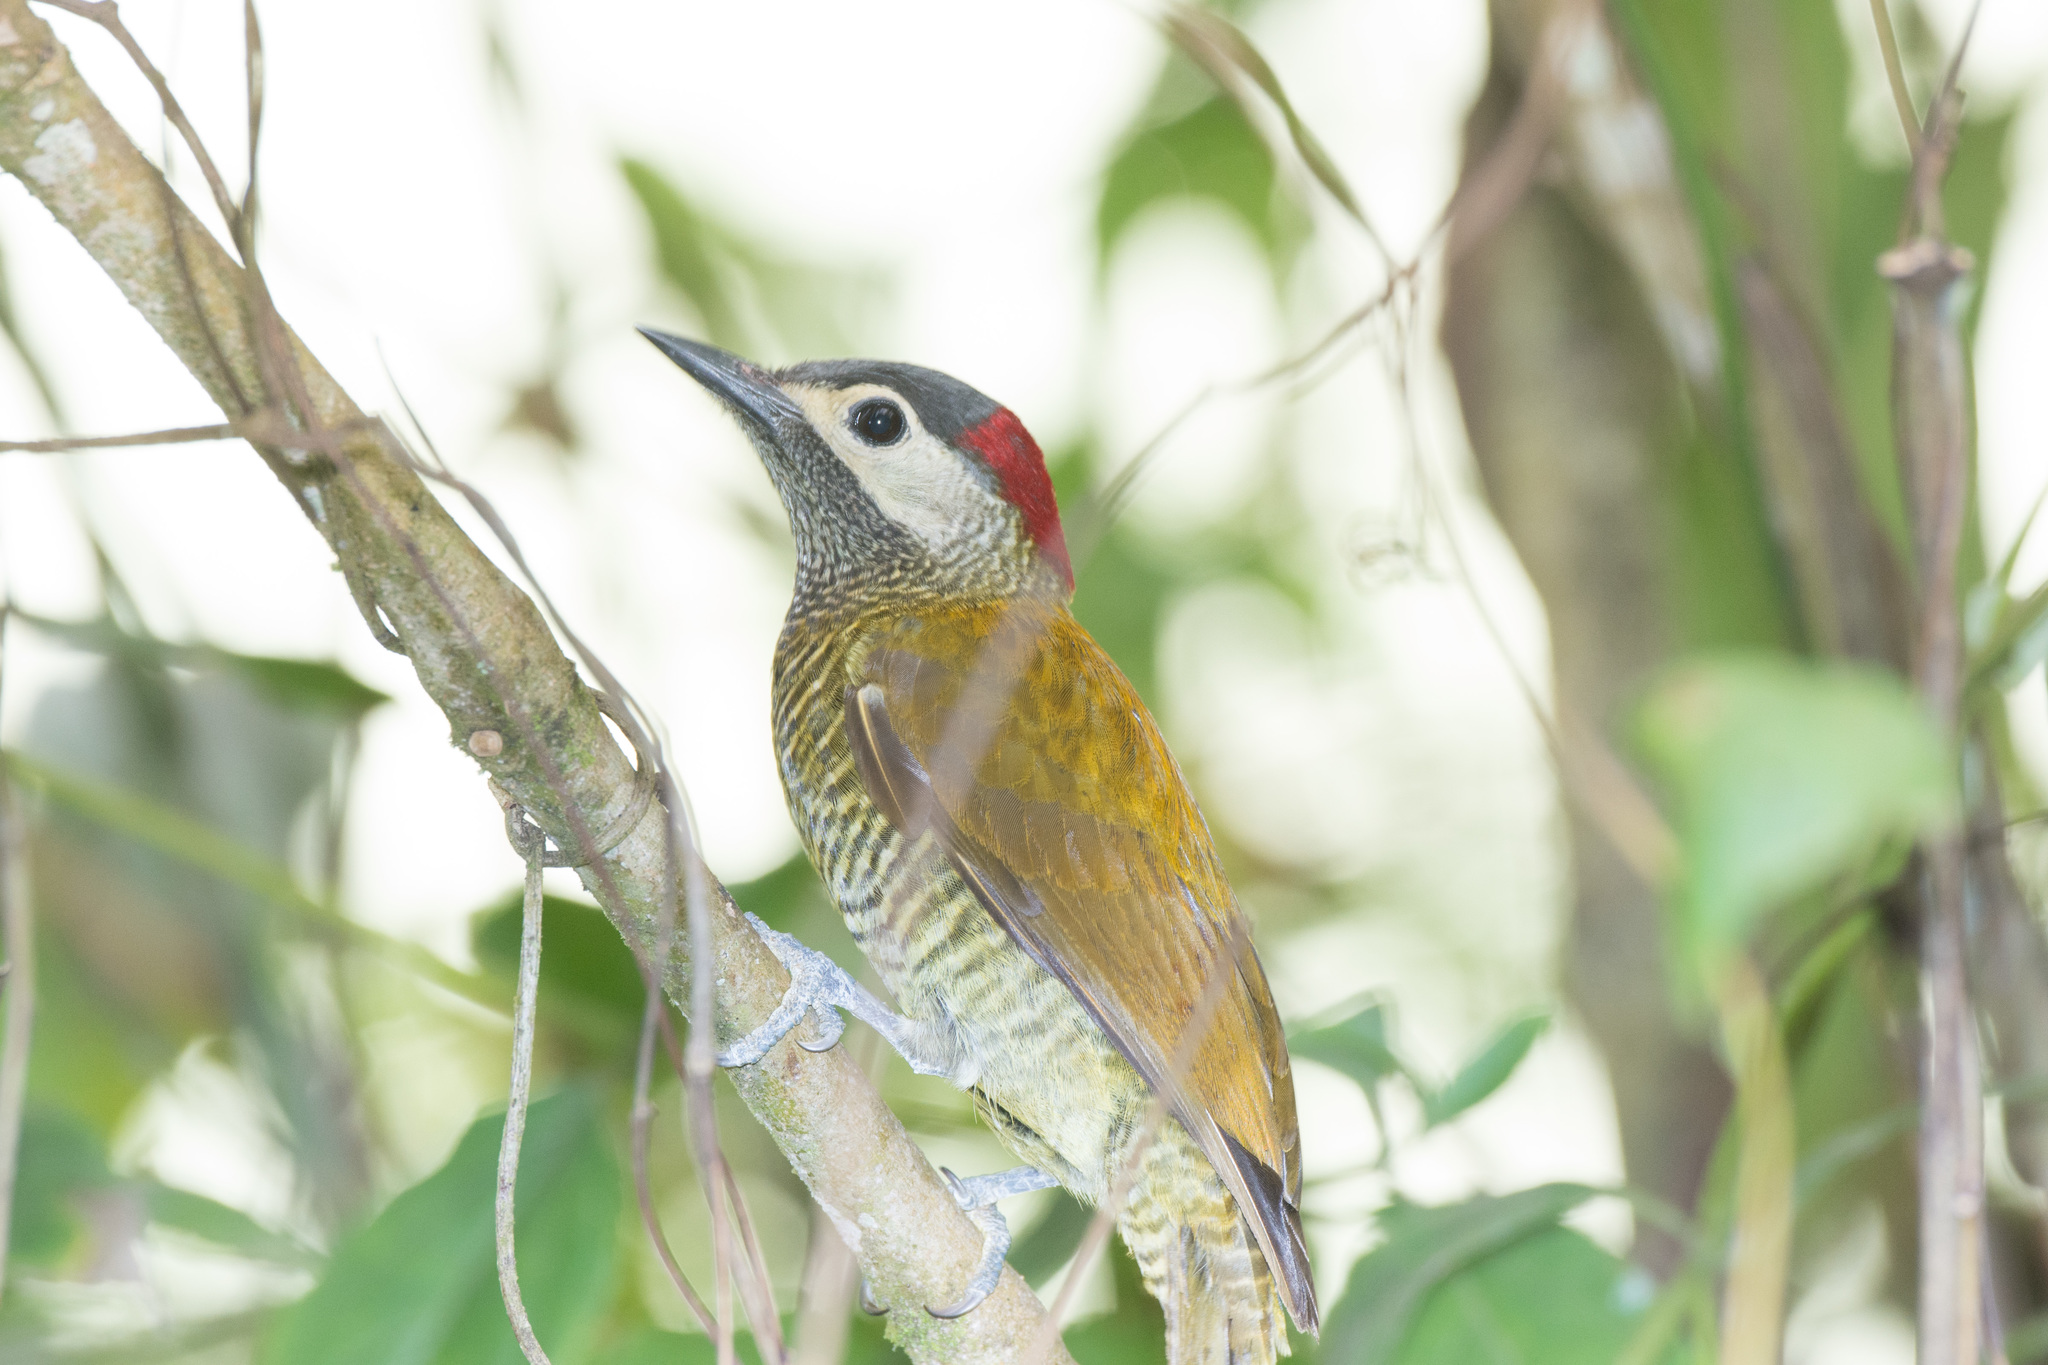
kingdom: Animalia
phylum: Chordata
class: Aves
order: Piciformes
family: Picidae
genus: Colaptes
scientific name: Colaptes rubiginosus
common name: Golden-olive woodpecker
